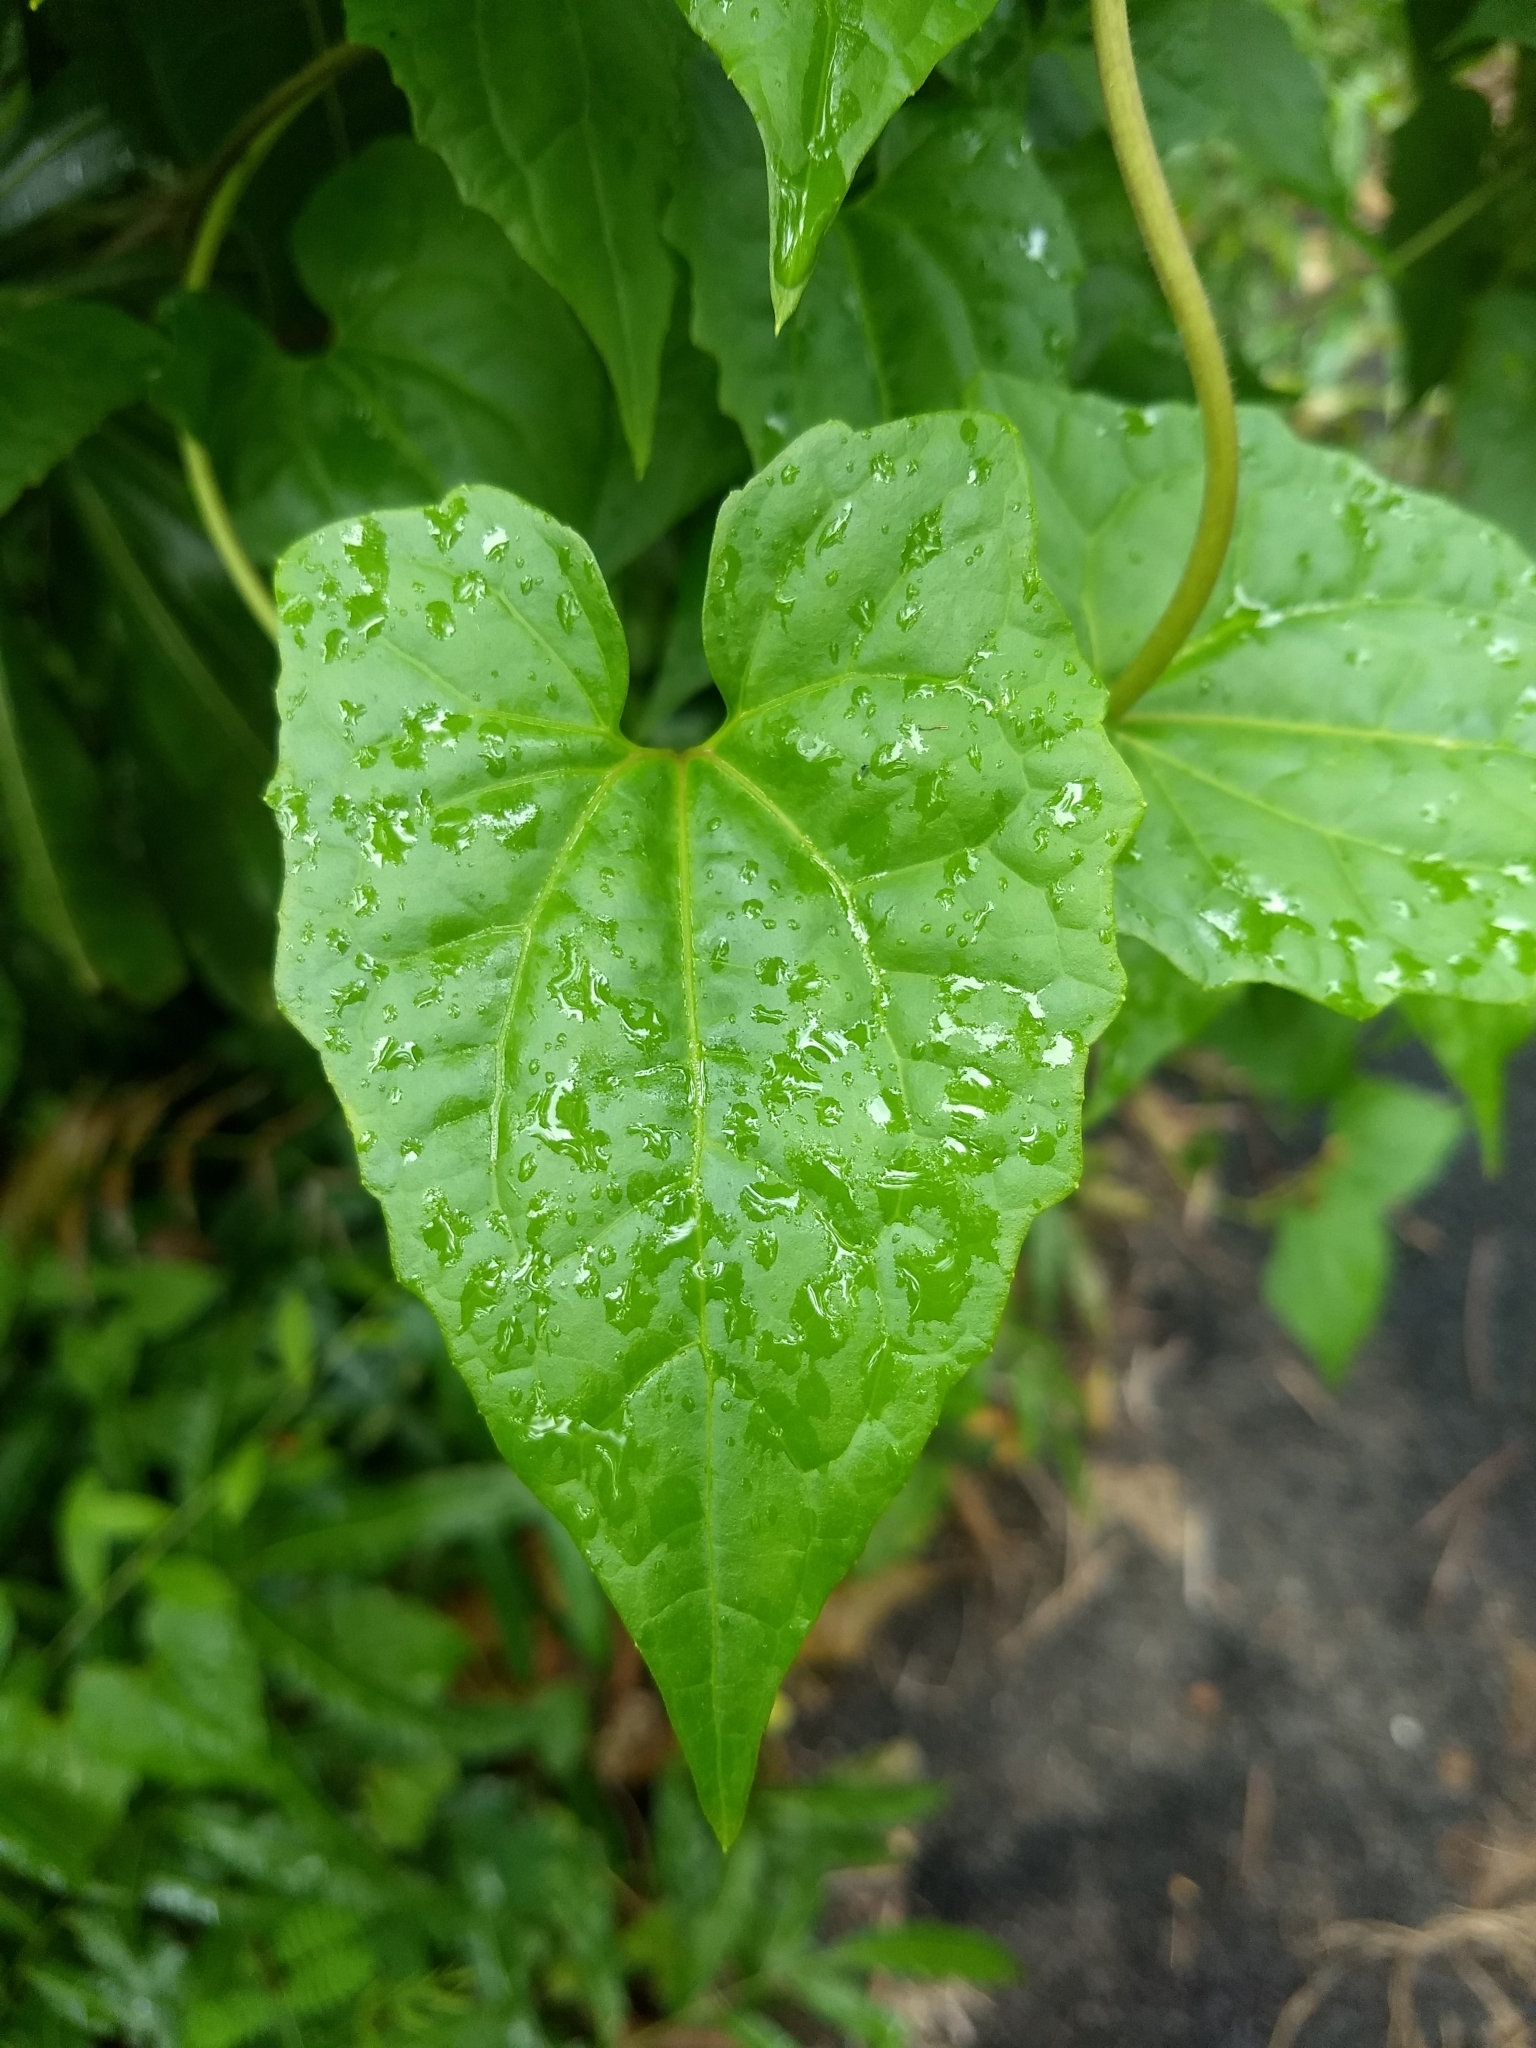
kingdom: Plantae
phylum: Tracheophyta
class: Magnoliopsida
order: Asterales
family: Asteraceae
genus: Mikania
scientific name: Mikania micrantha
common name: Mile-a-minute
